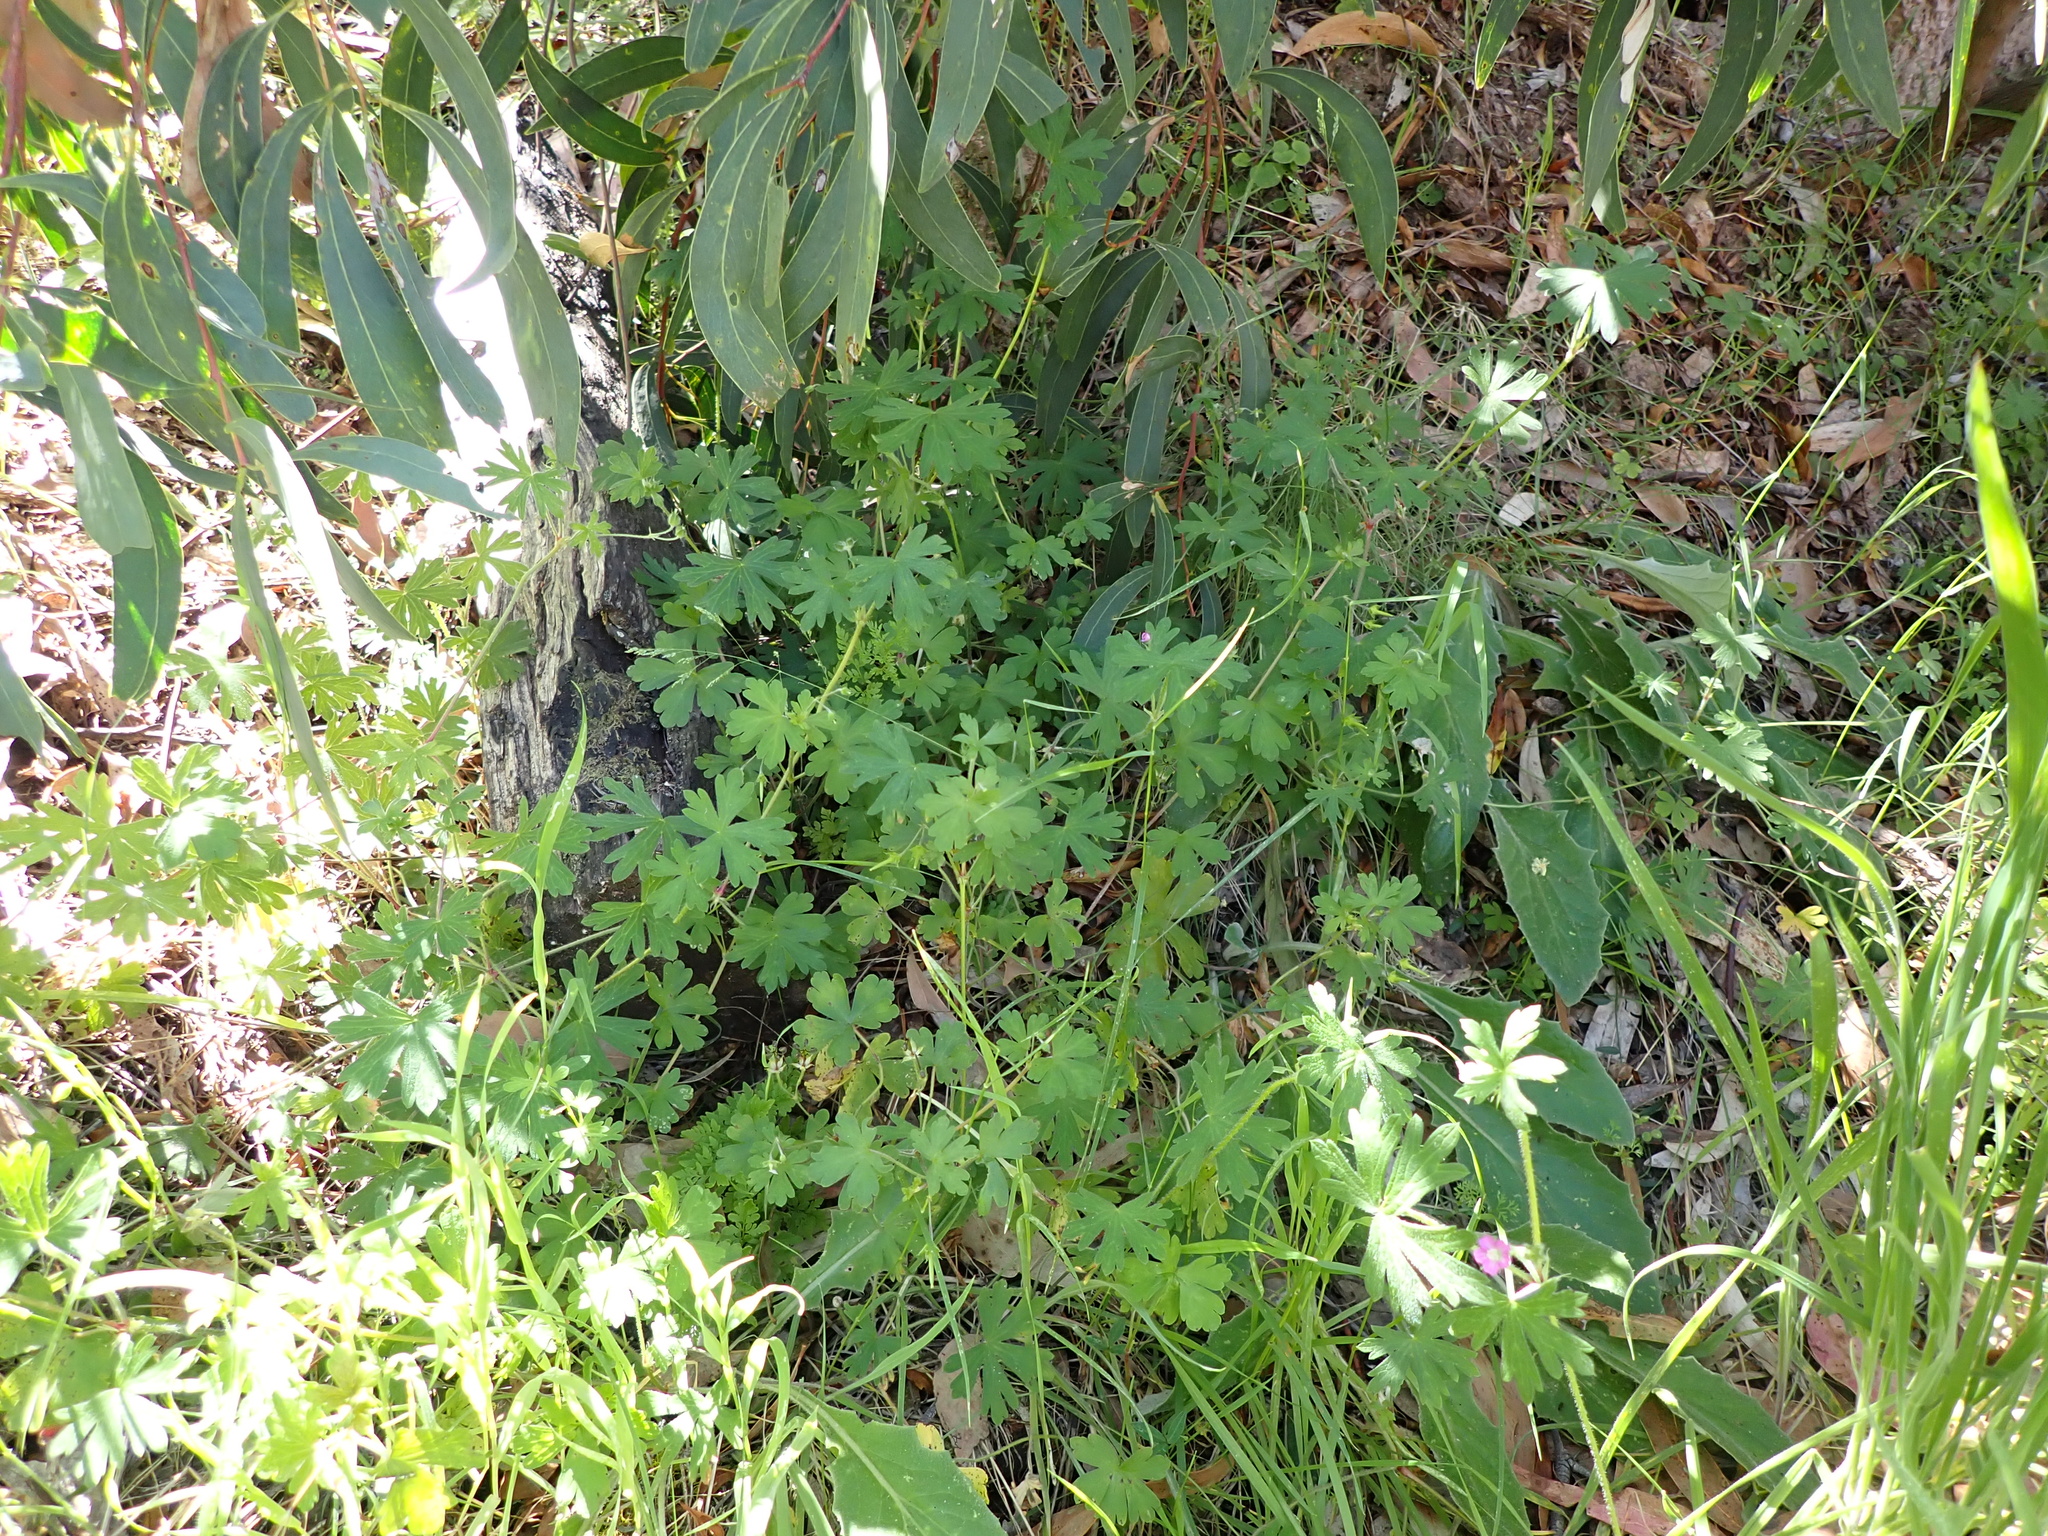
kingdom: Plantae
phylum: Tracheophyta
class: Magnoliopsida
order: Geraniales
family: Geraniaceae
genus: Geranium
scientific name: Geranium gardneri
